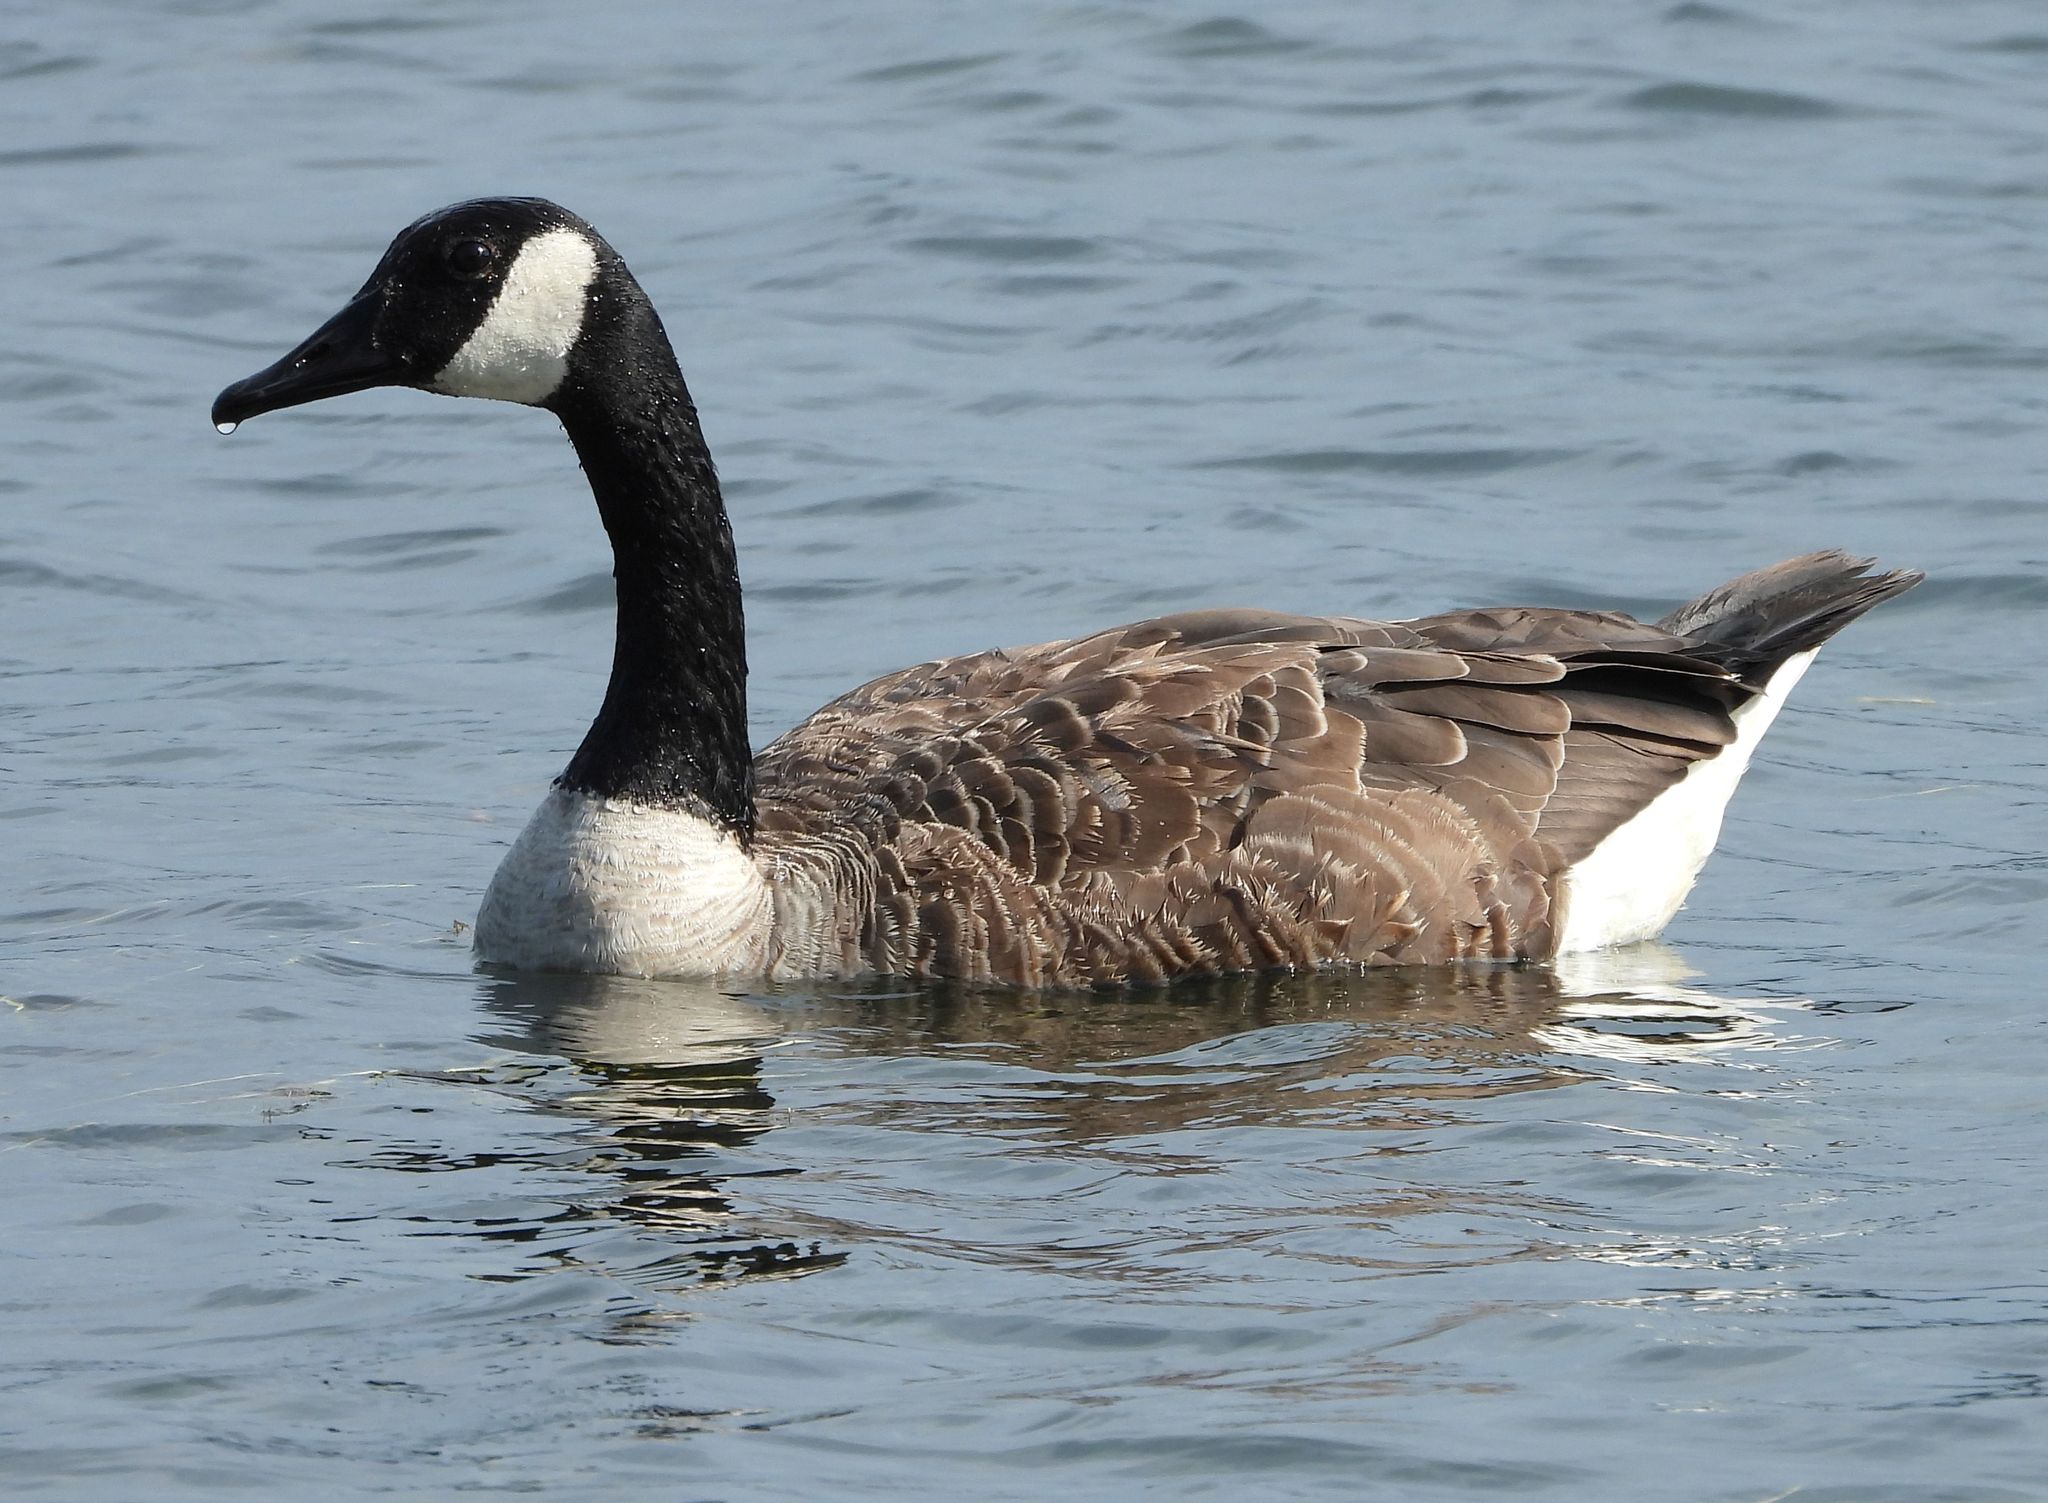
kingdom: Animalia
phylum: Chordata
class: Aves
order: Anseriformes
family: Anatidae
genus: Branta
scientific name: Branta canadensis
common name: Canada goose
